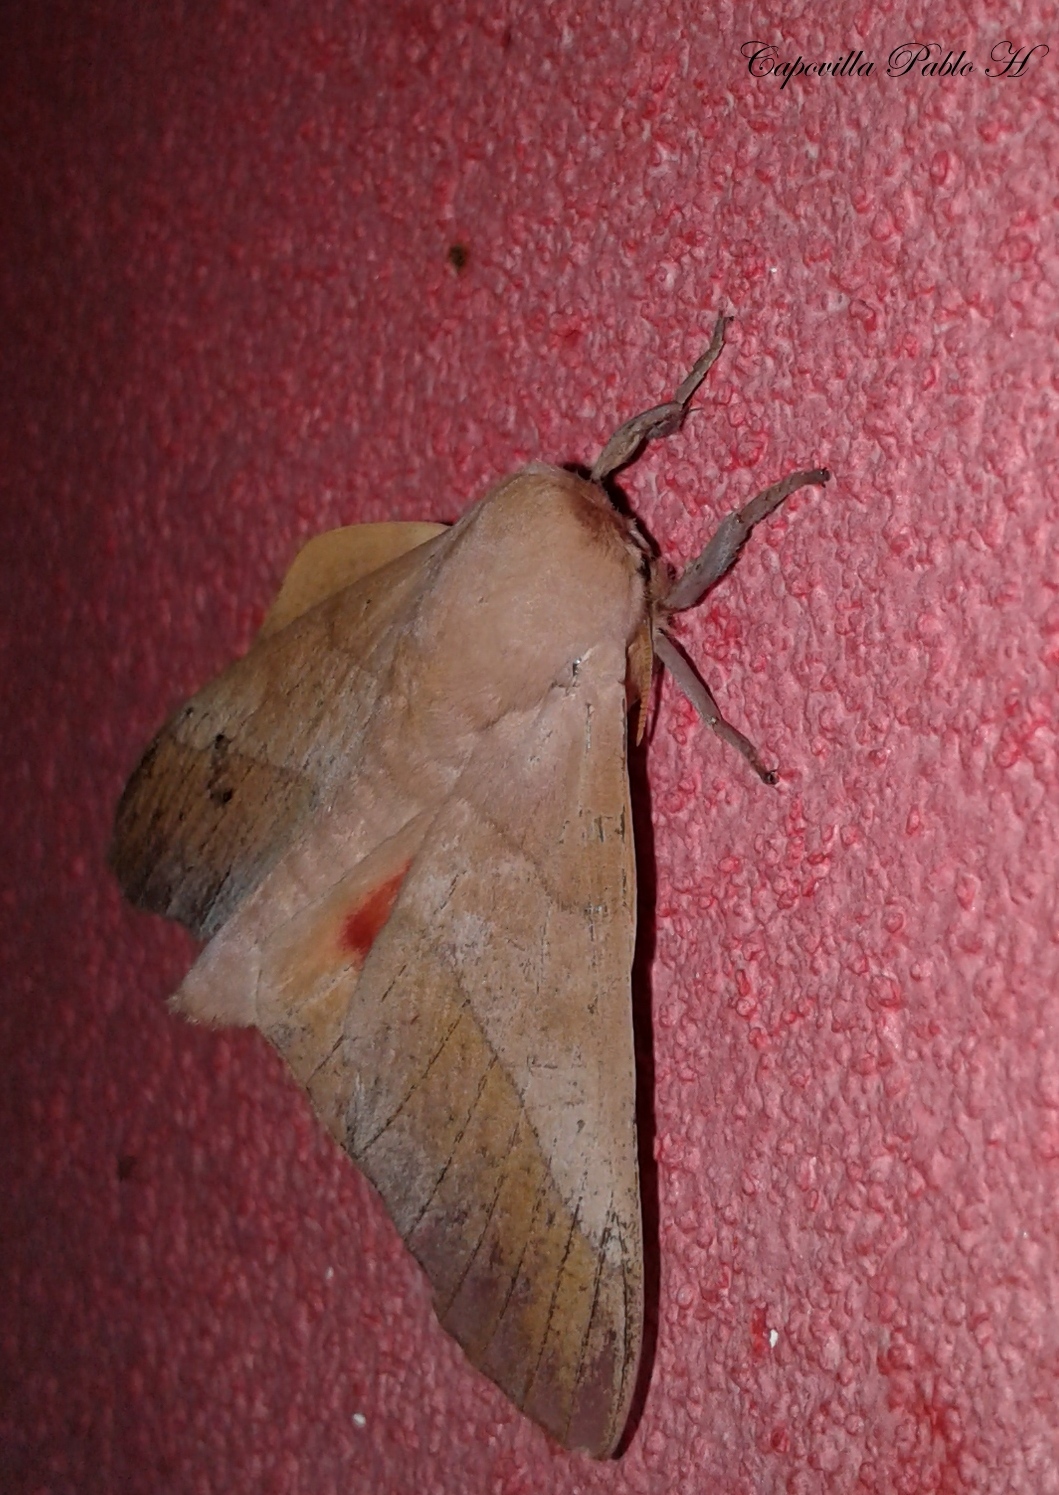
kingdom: Animalia
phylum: Arthropoda
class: Insecta
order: Lepidoptera
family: Saturniidae
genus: Syssphinx
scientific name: Syssphinx molina
